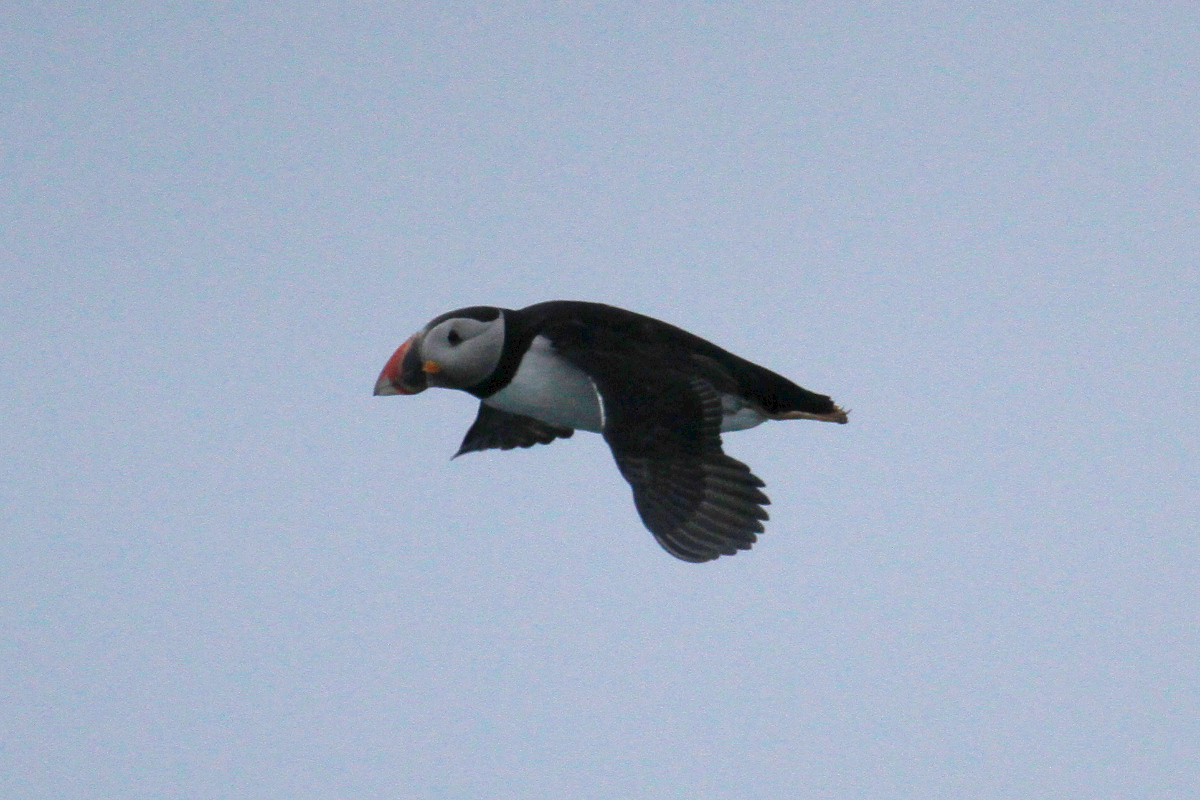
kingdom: Animalia
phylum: Chordata
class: Aves
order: Charadriiformes
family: Alcidae
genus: Fratercula
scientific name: Fratercula arctica
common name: Atlantic puffin
